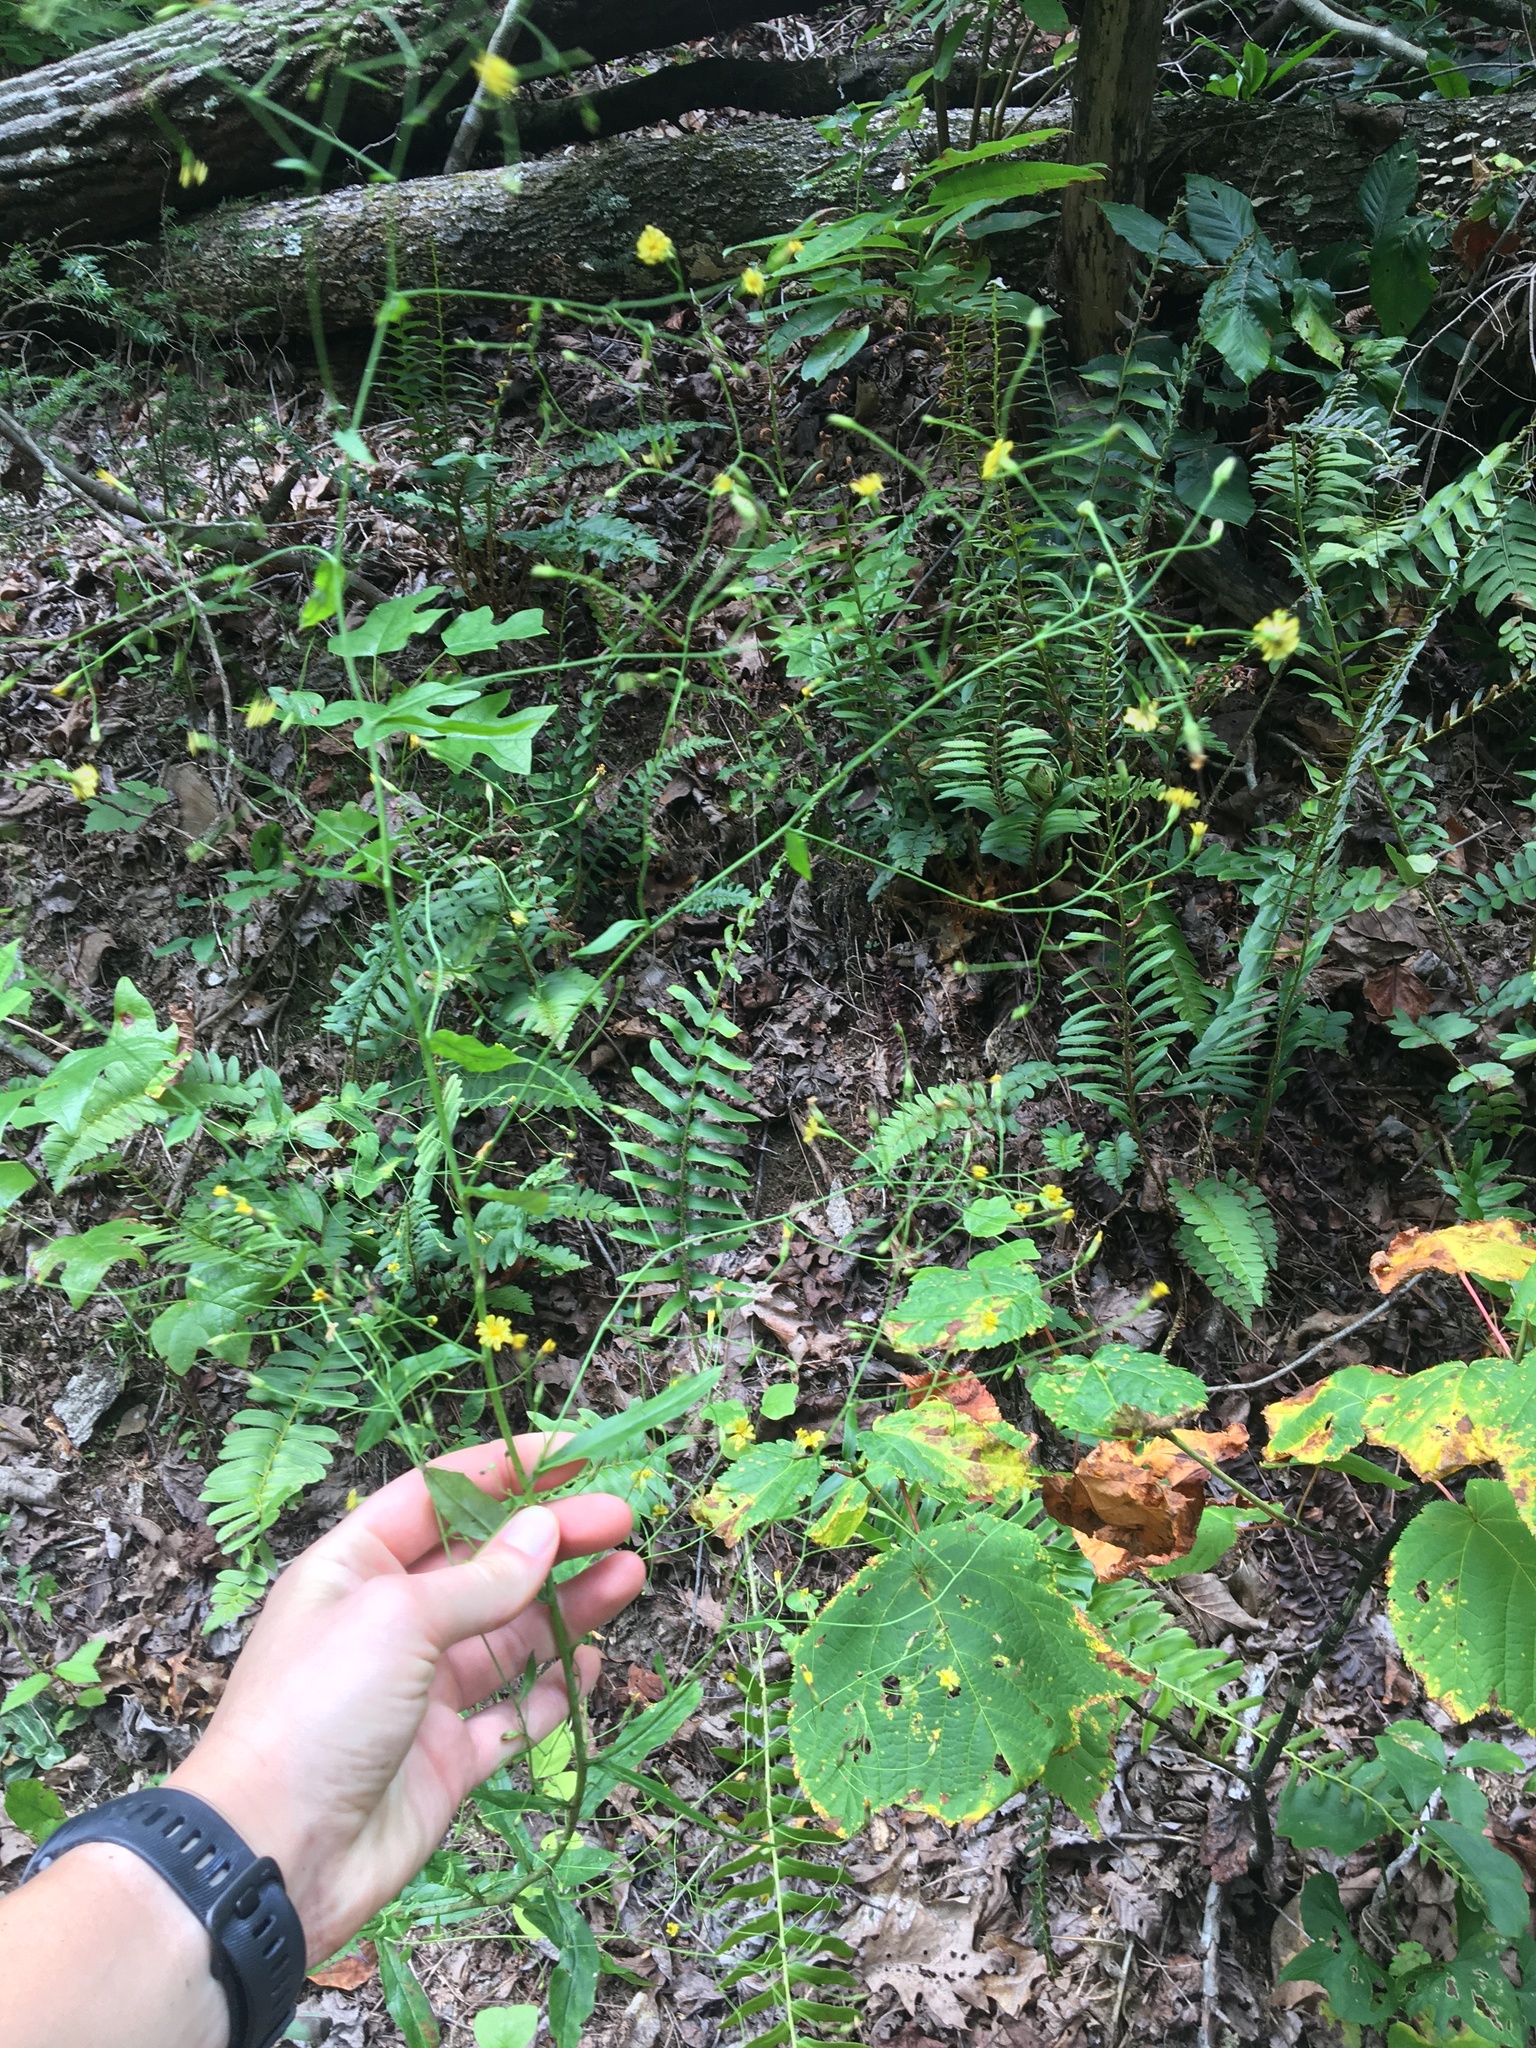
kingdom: Plantae
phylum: Tracheophyta
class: Magnoliopsida
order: Asterales
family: Asteraceae
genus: Hieracium
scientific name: Hieracium paniculatum
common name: Allegheny hawkweed
